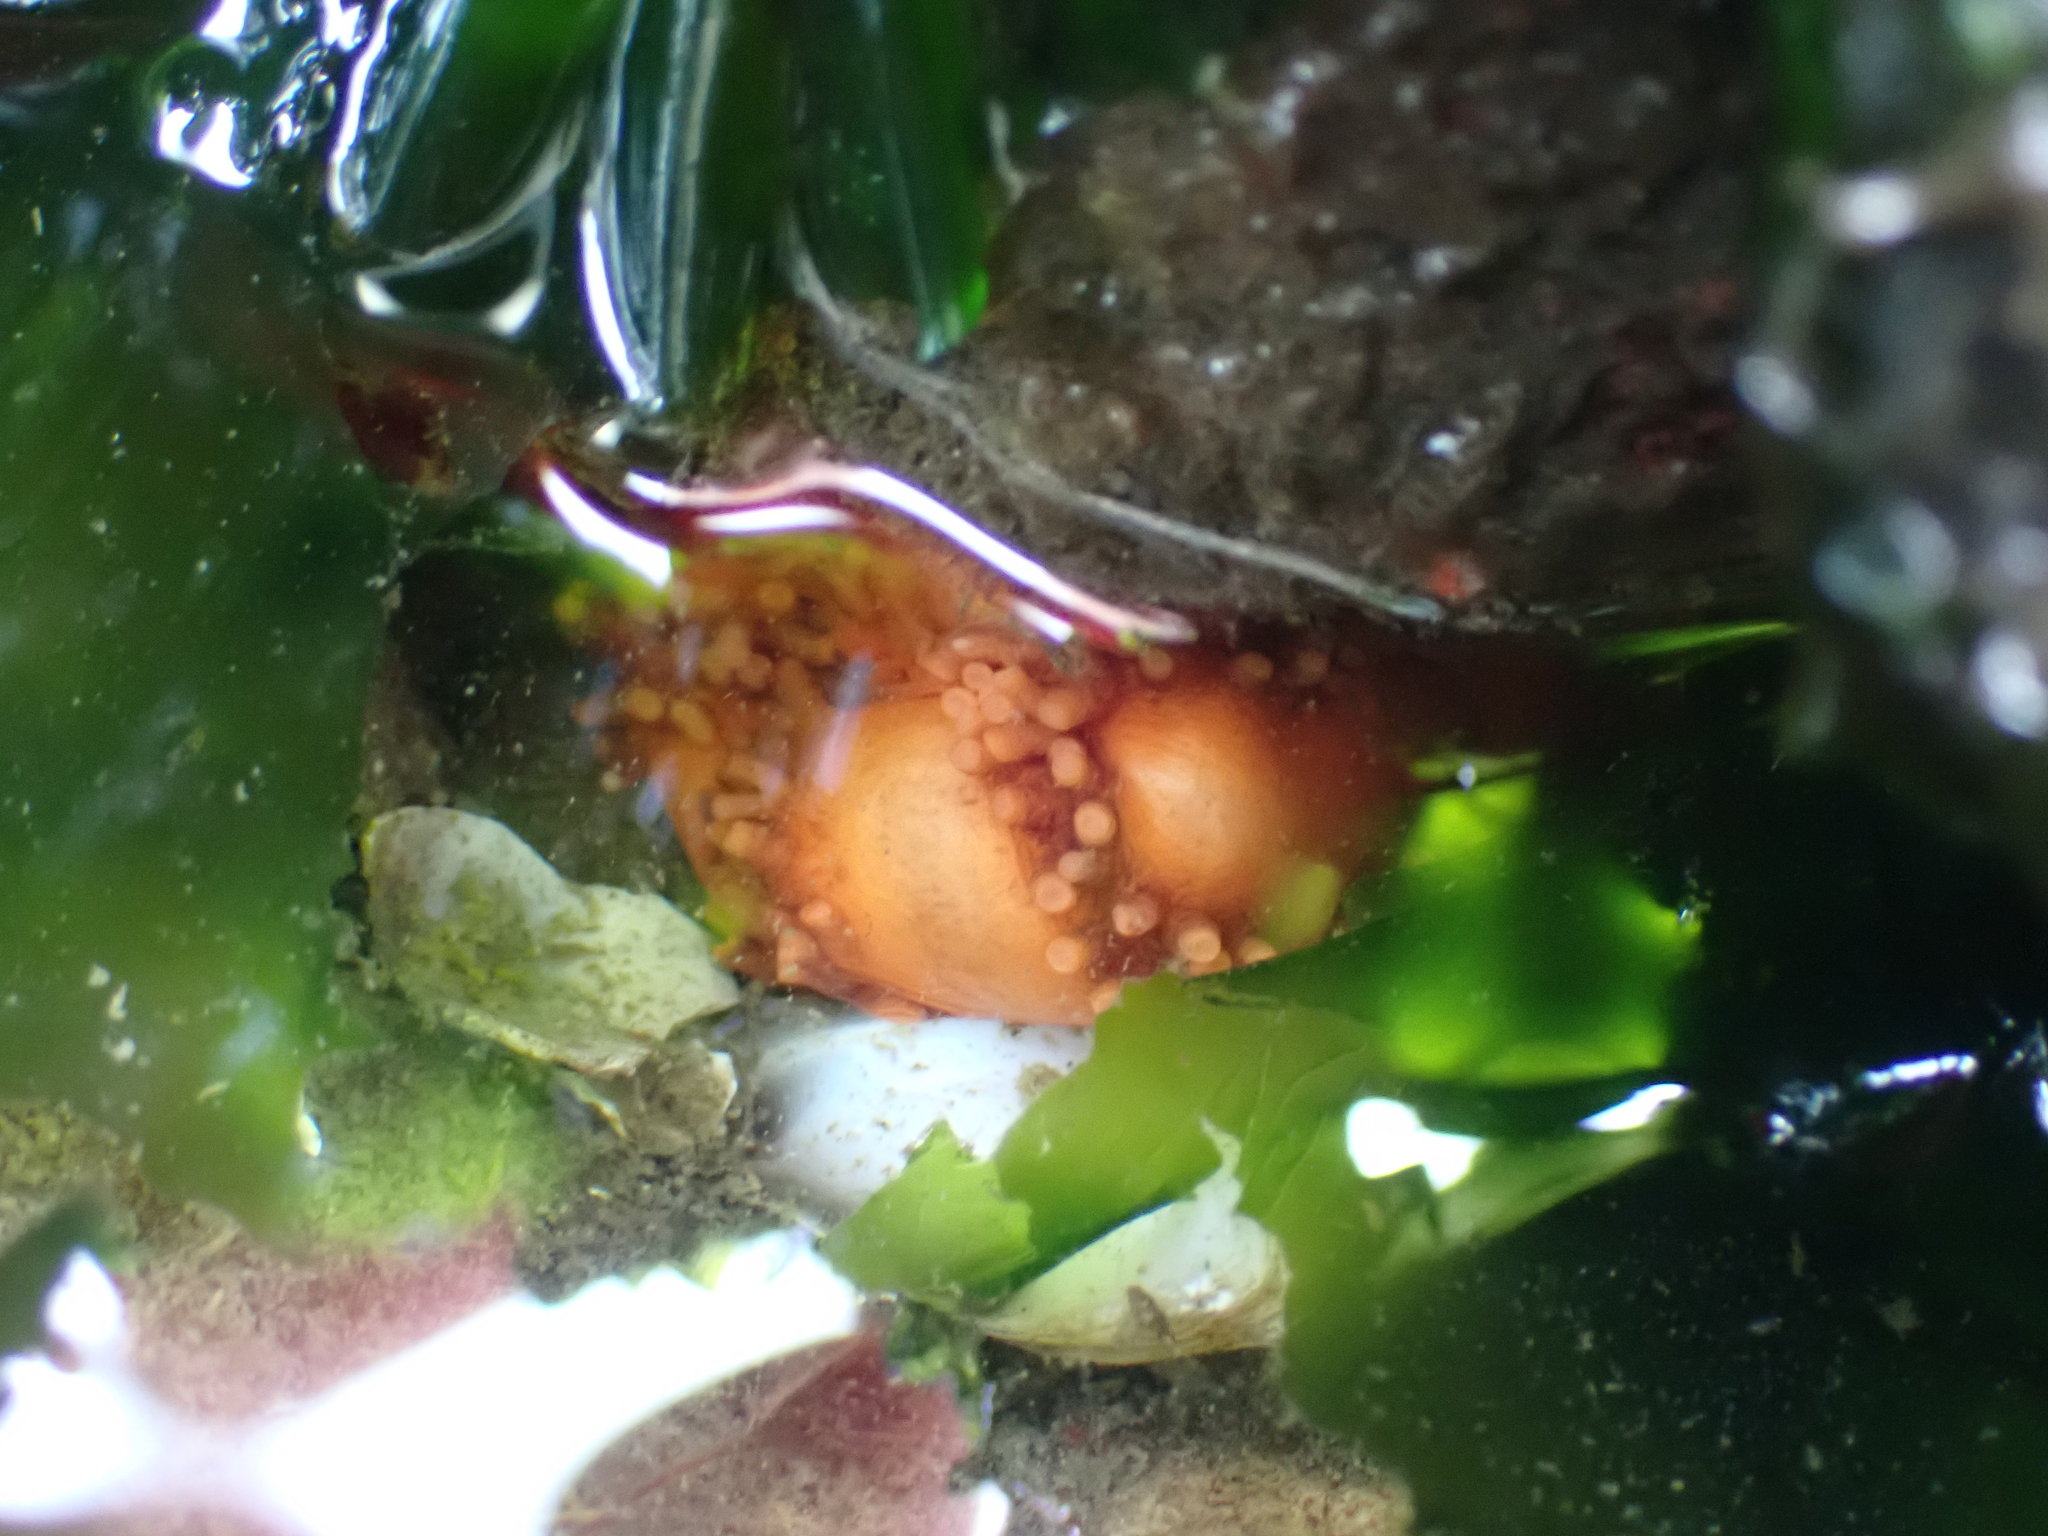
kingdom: Animalia
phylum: Echinodermata
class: Holothuroidea
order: Dendrochirotida
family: Cucumariidae
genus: Cucumaria
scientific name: Cucumaria miniata
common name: Orange sea cucumber
